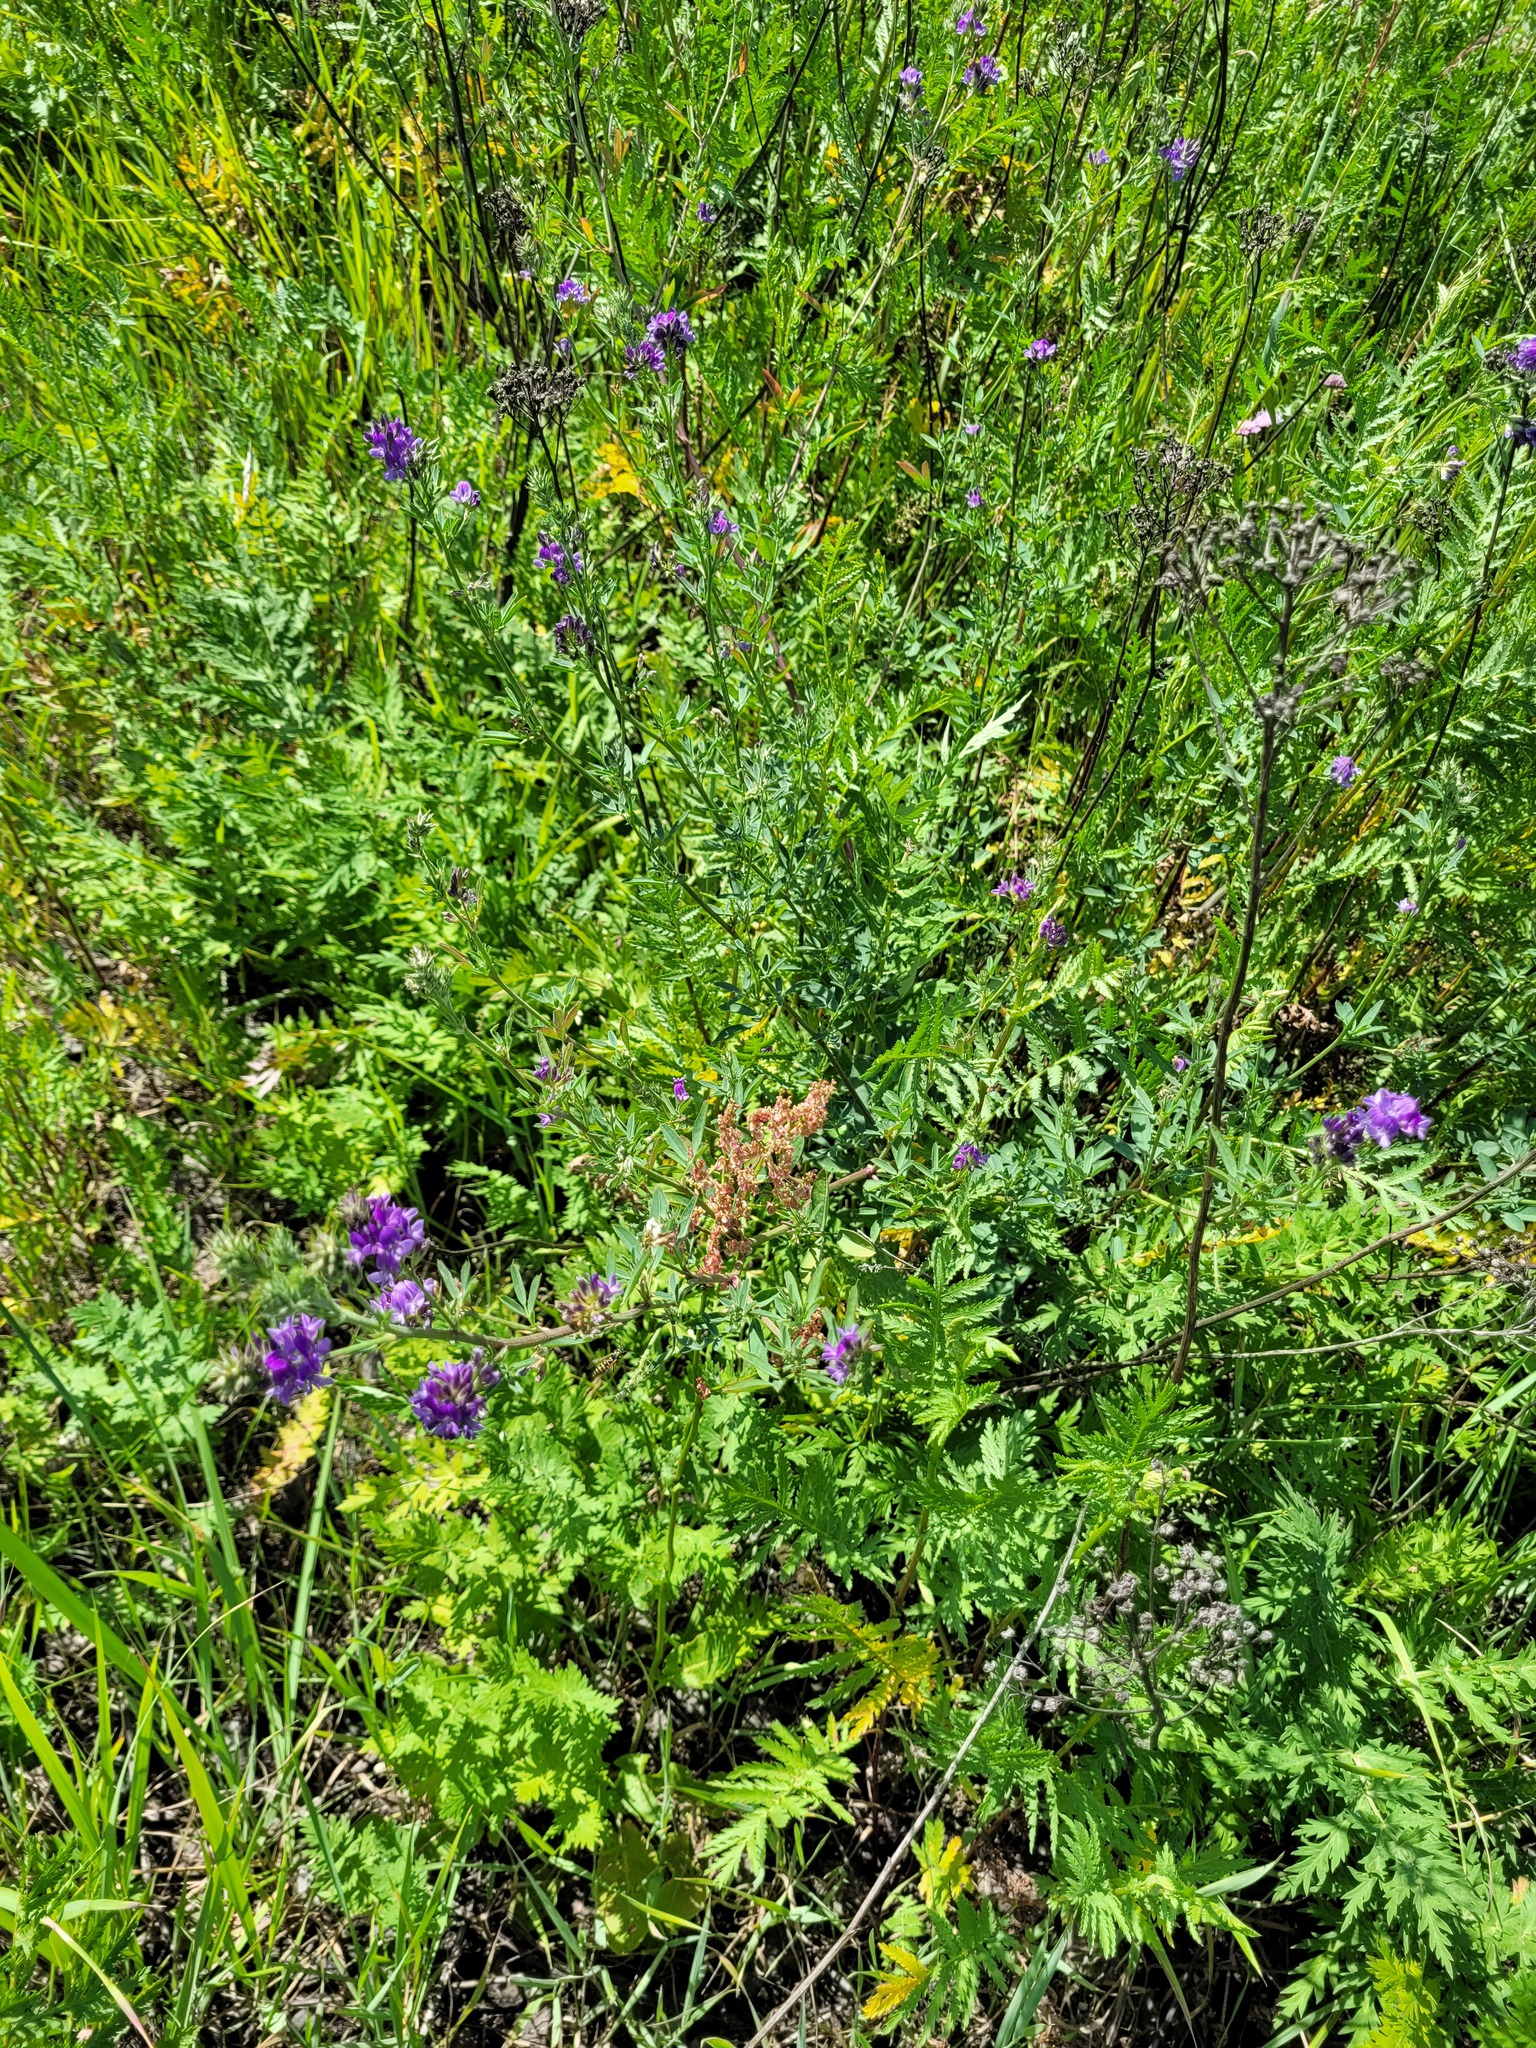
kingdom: Plantae
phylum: Tracheophyta
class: Magnoliopsida
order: Fabales
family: Fabaceae
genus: Medicago
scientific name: Medicago sativa
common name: Alfalfa
